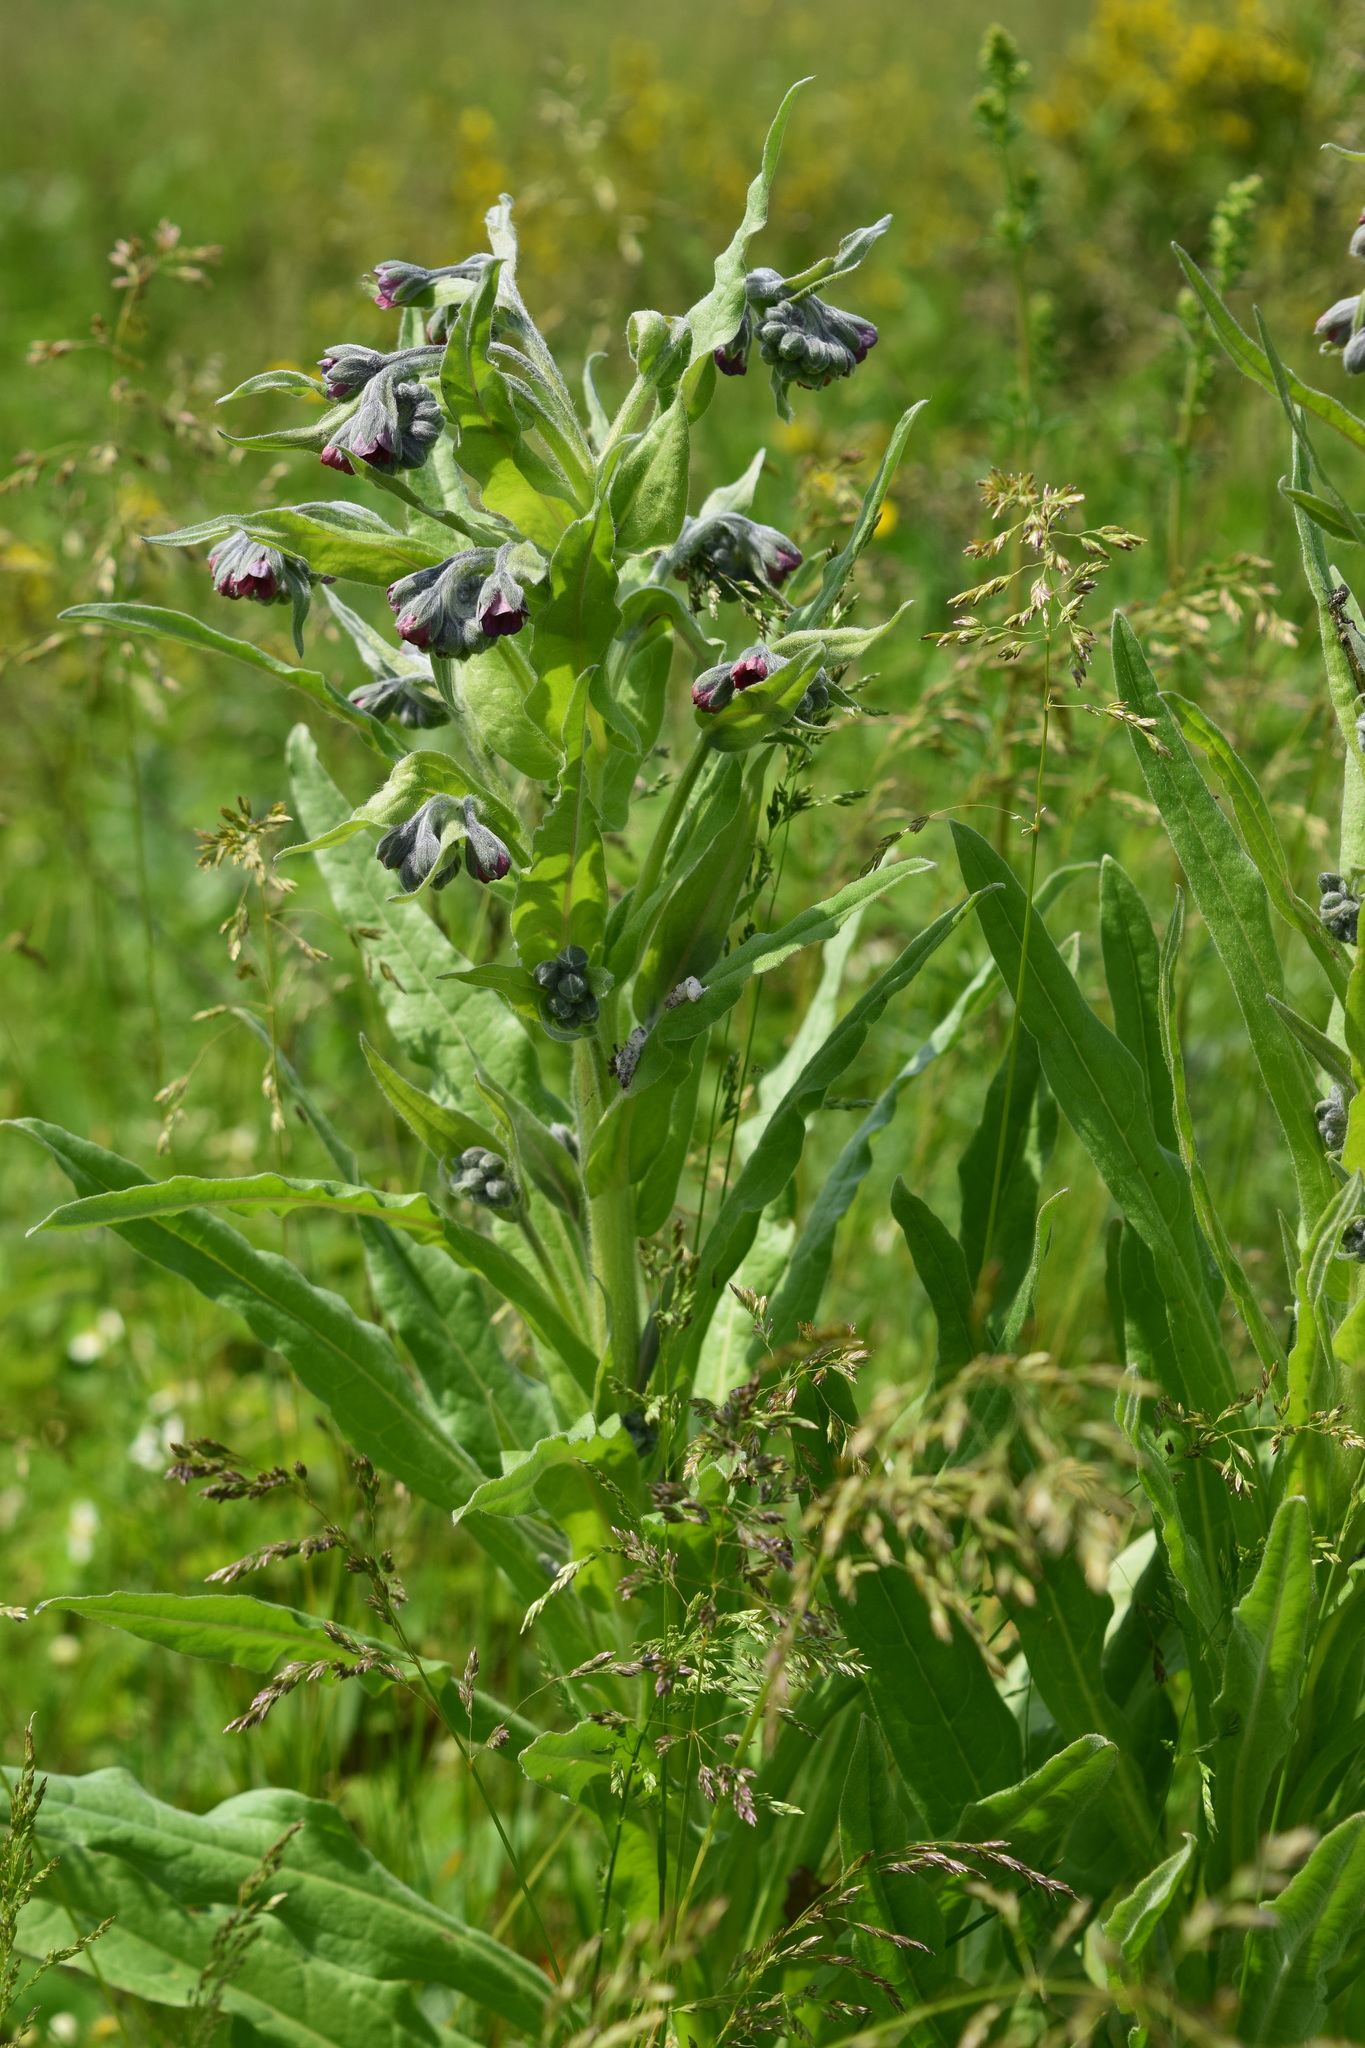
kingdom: Plantae
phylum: Tracheophyta
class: Magnoliopsida
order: Boraginales
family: Boraginaceae
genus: Cynoglossum
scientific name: Cynoglossum officinale
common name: Hound's-tongue
